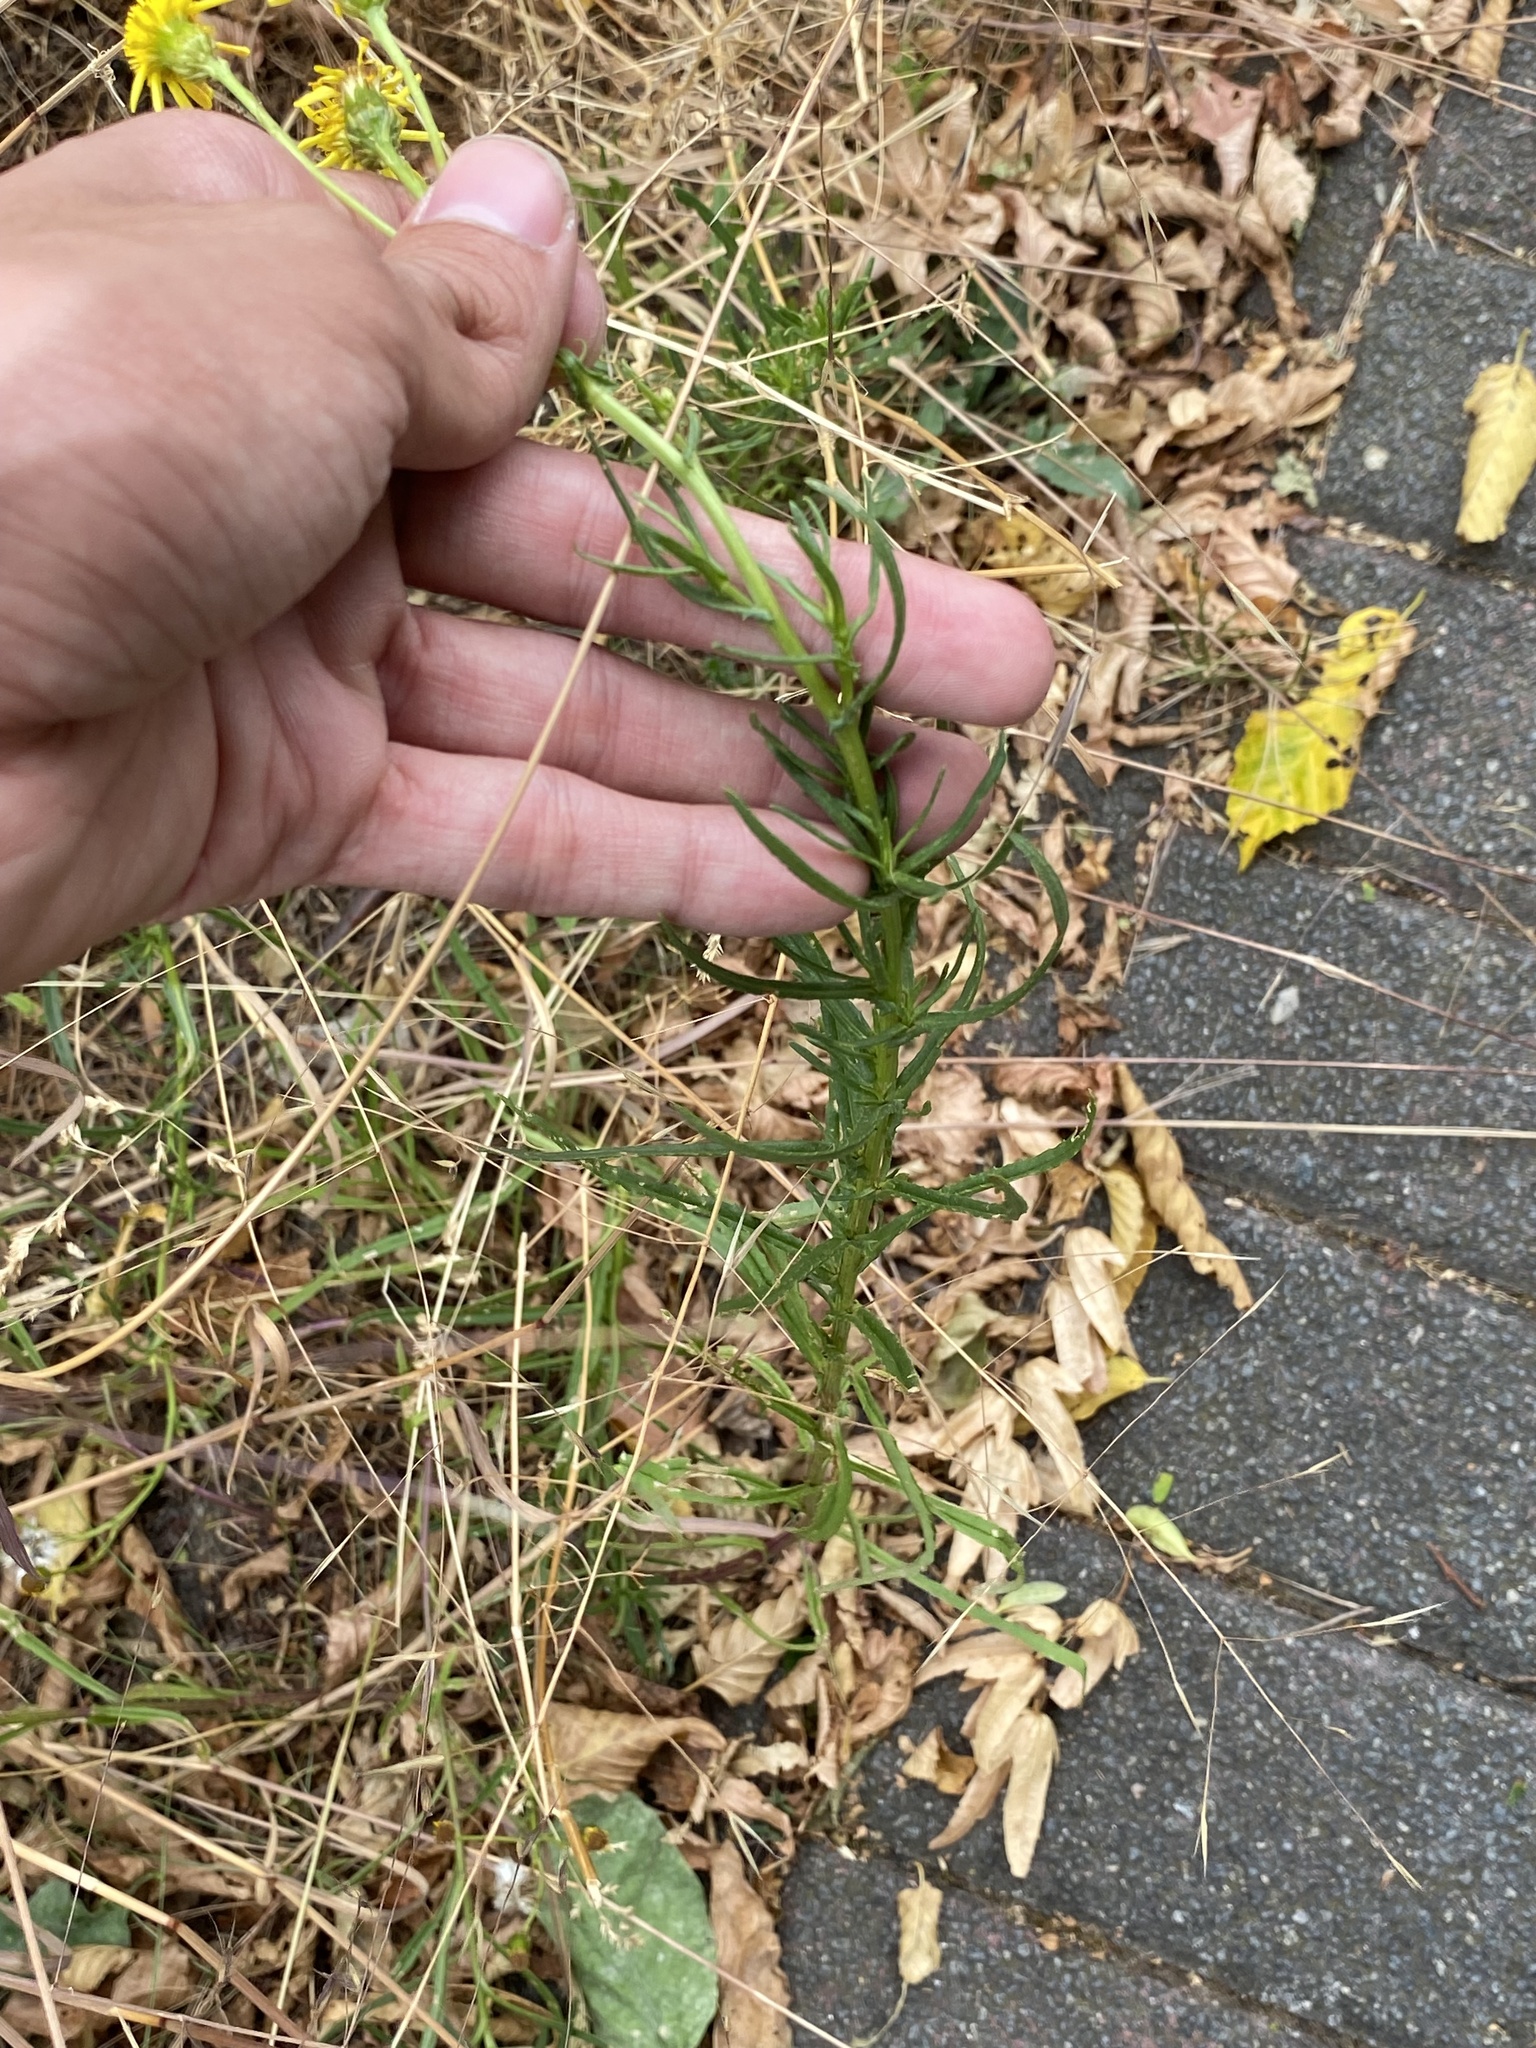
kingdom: Plantae
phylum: Tracheophyta
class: Magnoliopsida
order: Asterales
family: Asteraceae
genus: Senecio
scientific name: Senecio inaequidens
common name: Narrow-leaved ragwort
